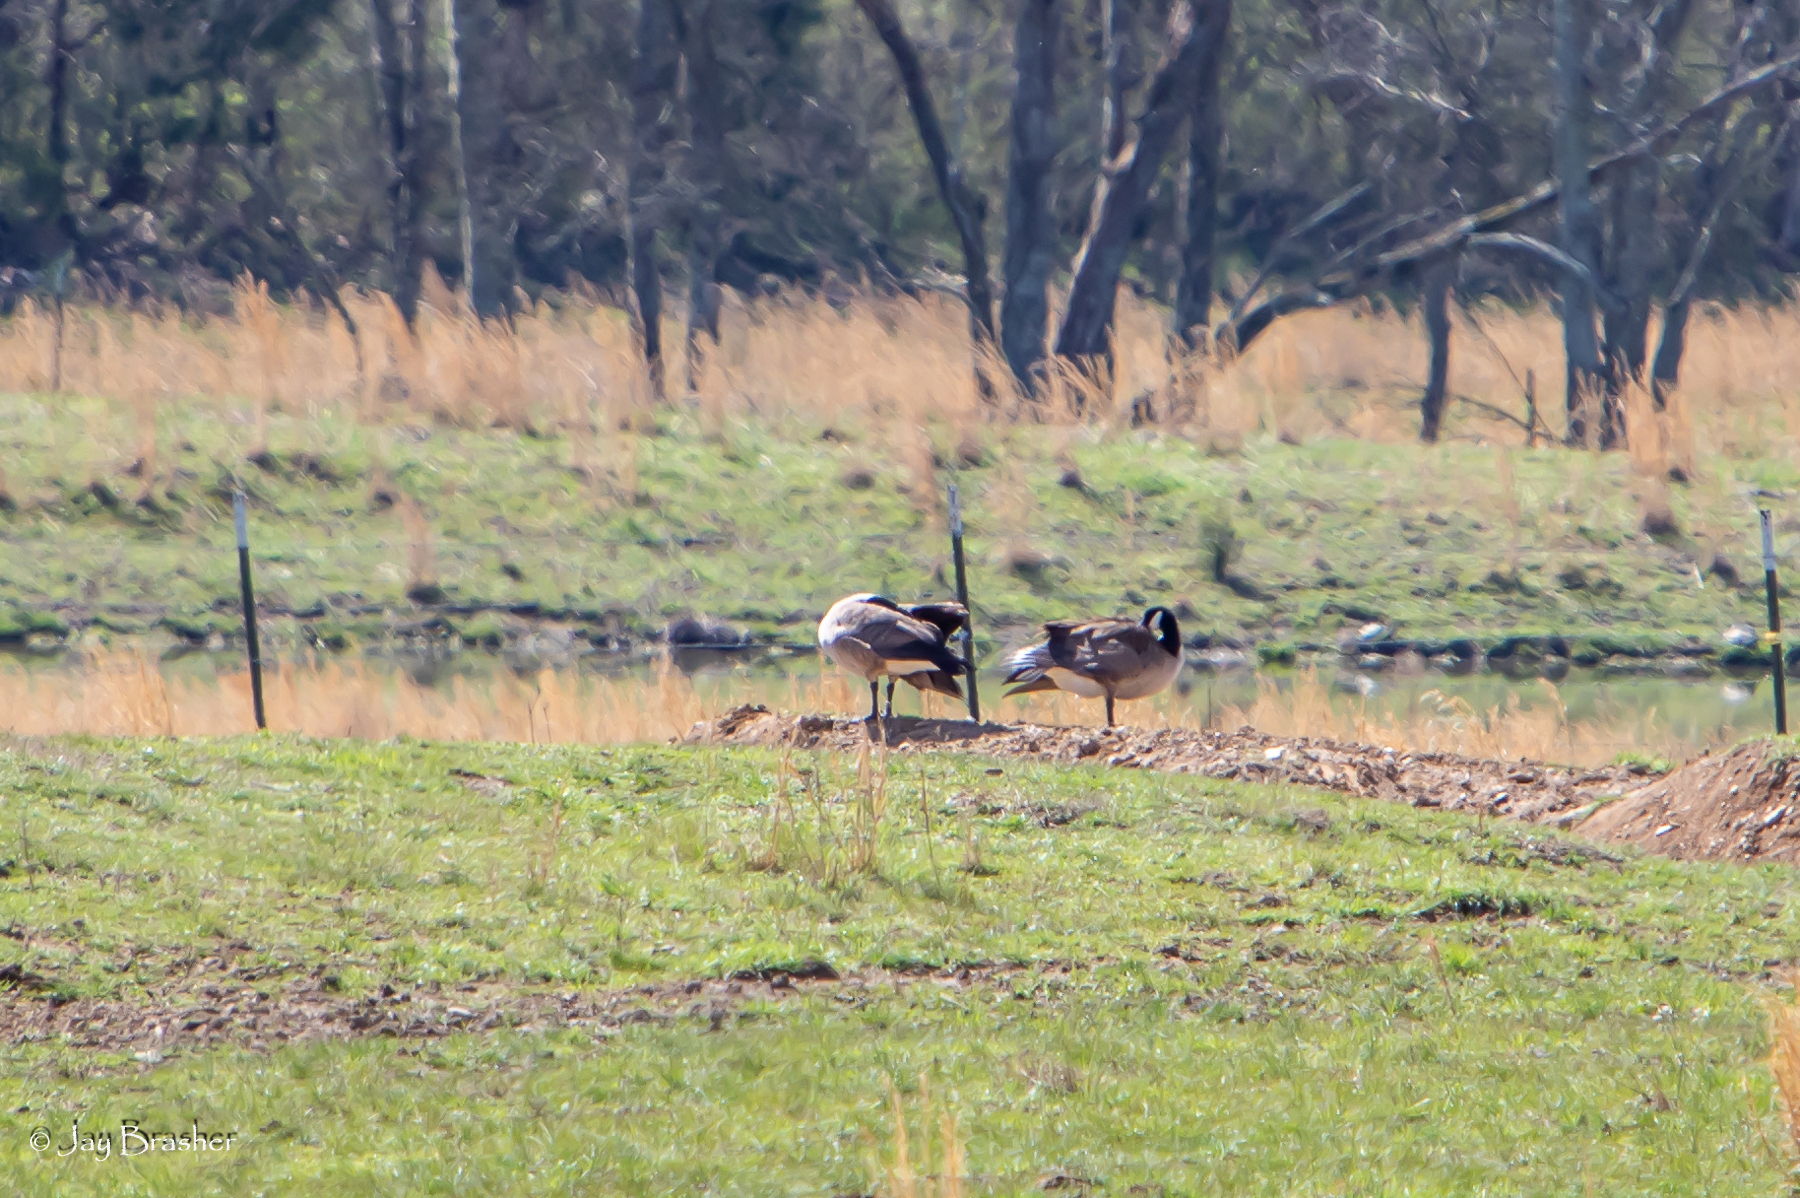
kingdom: Animalia
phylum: Chordata
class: Aves
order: Anseriformes
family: Anatidae
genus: Branta
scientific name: Branta canadensis
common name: Canada goose
